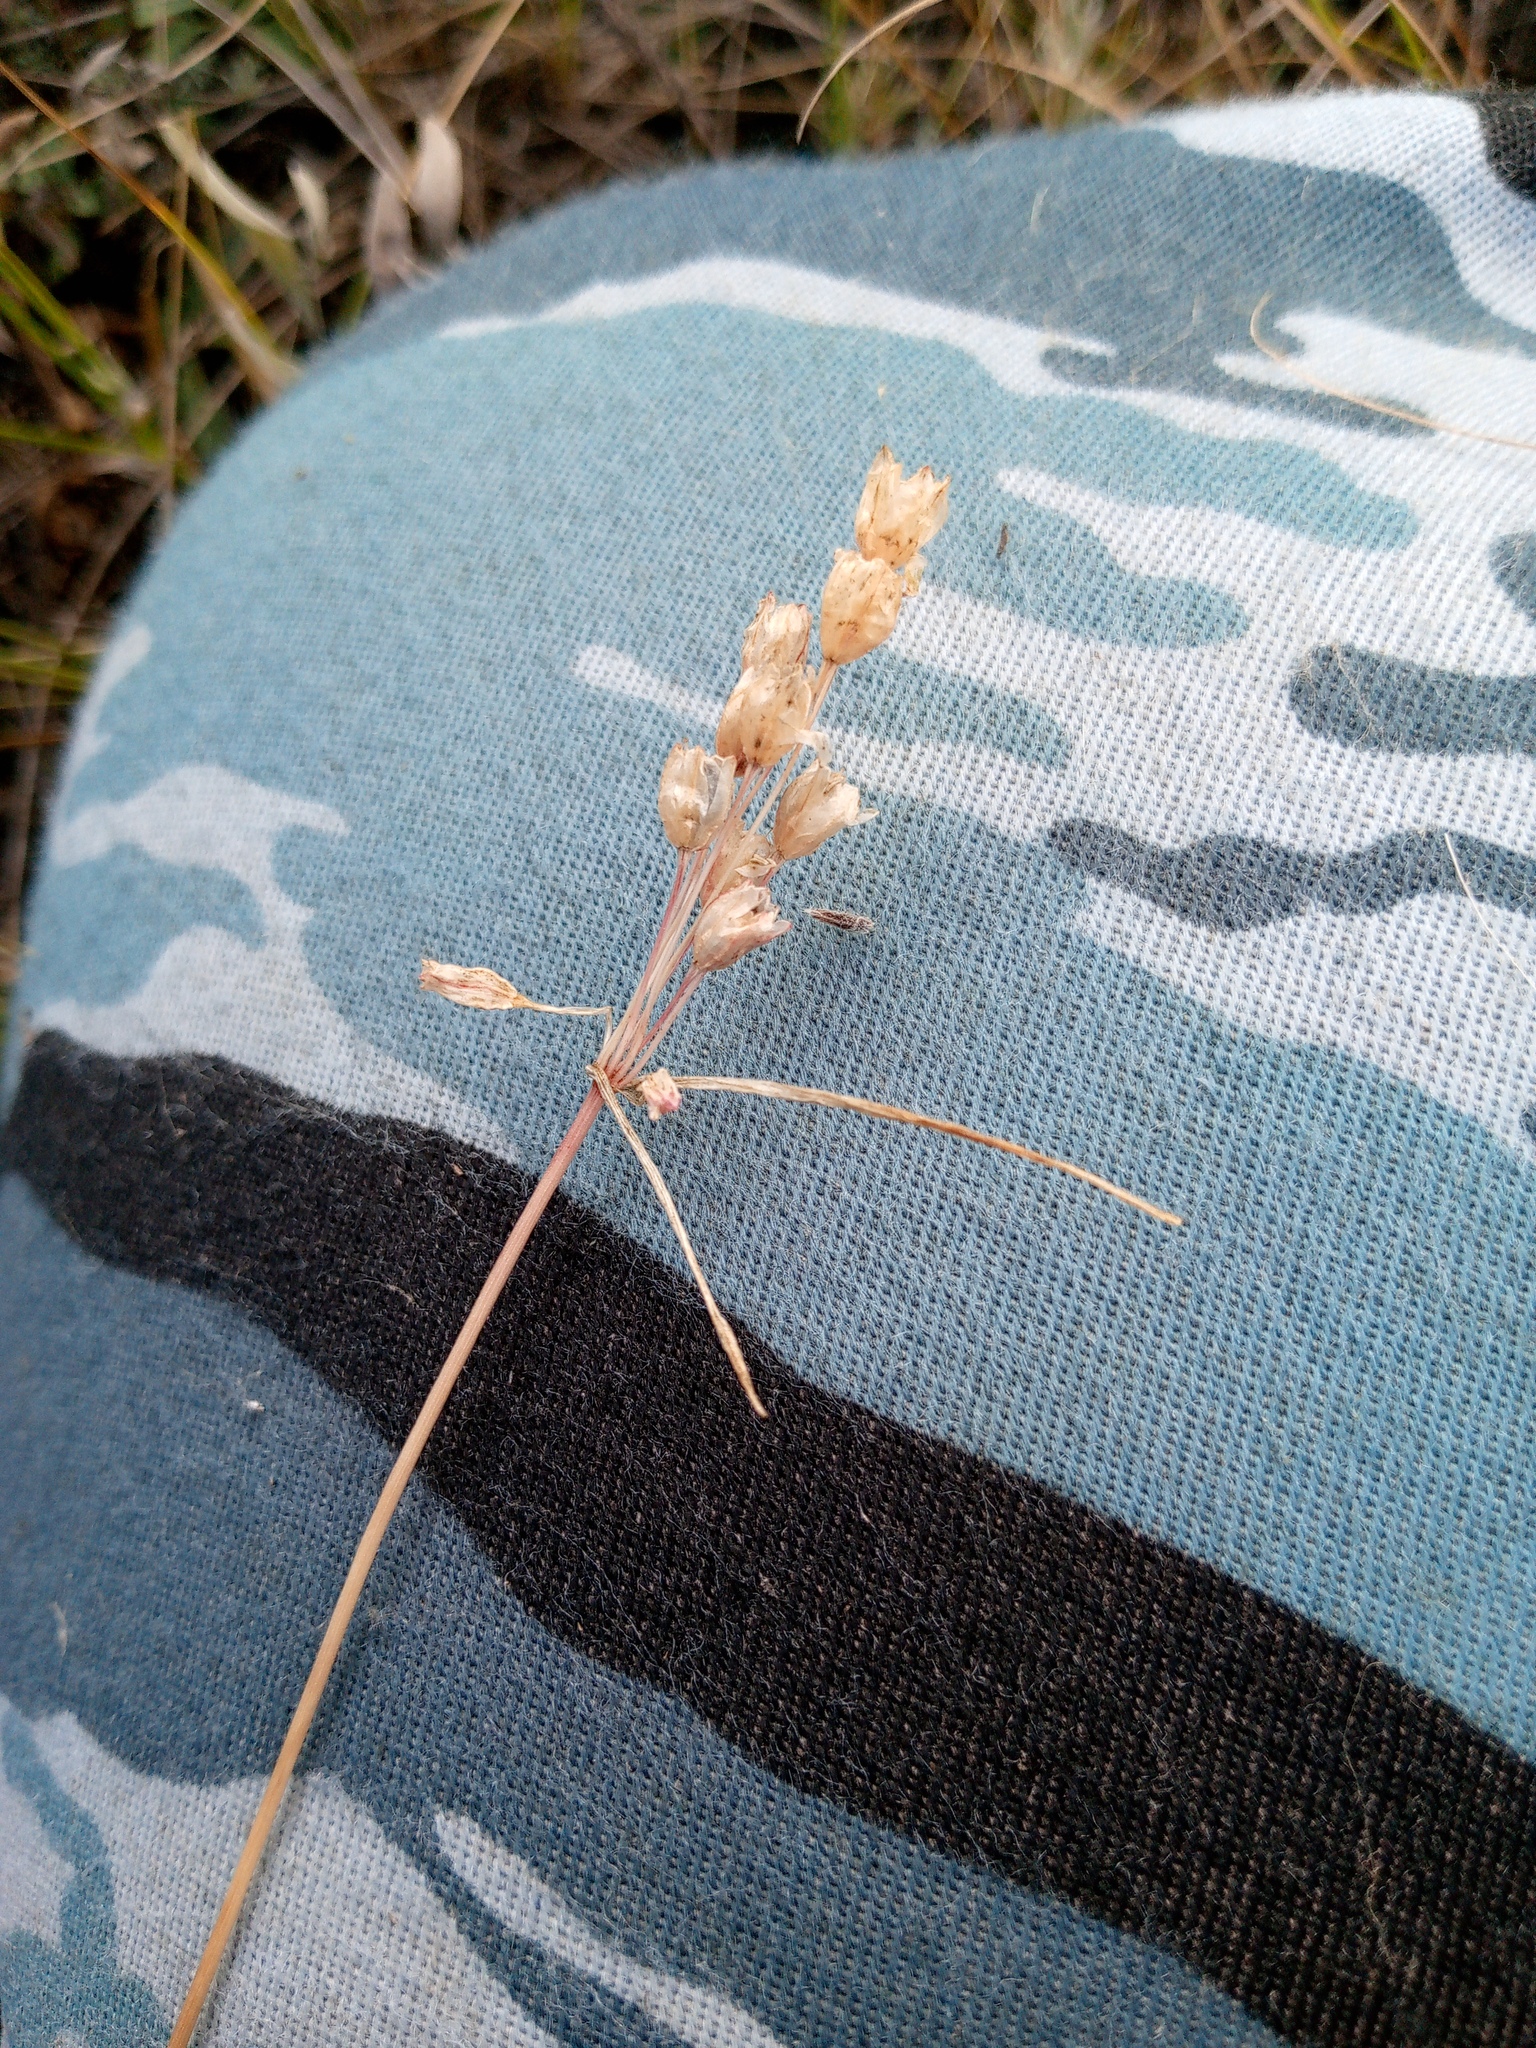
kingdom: Plantae
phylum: Tracheophyta
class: Liliopsida
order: Asparagales
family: Amaryllidaceae
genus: Allium
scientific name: Allium praescissum
